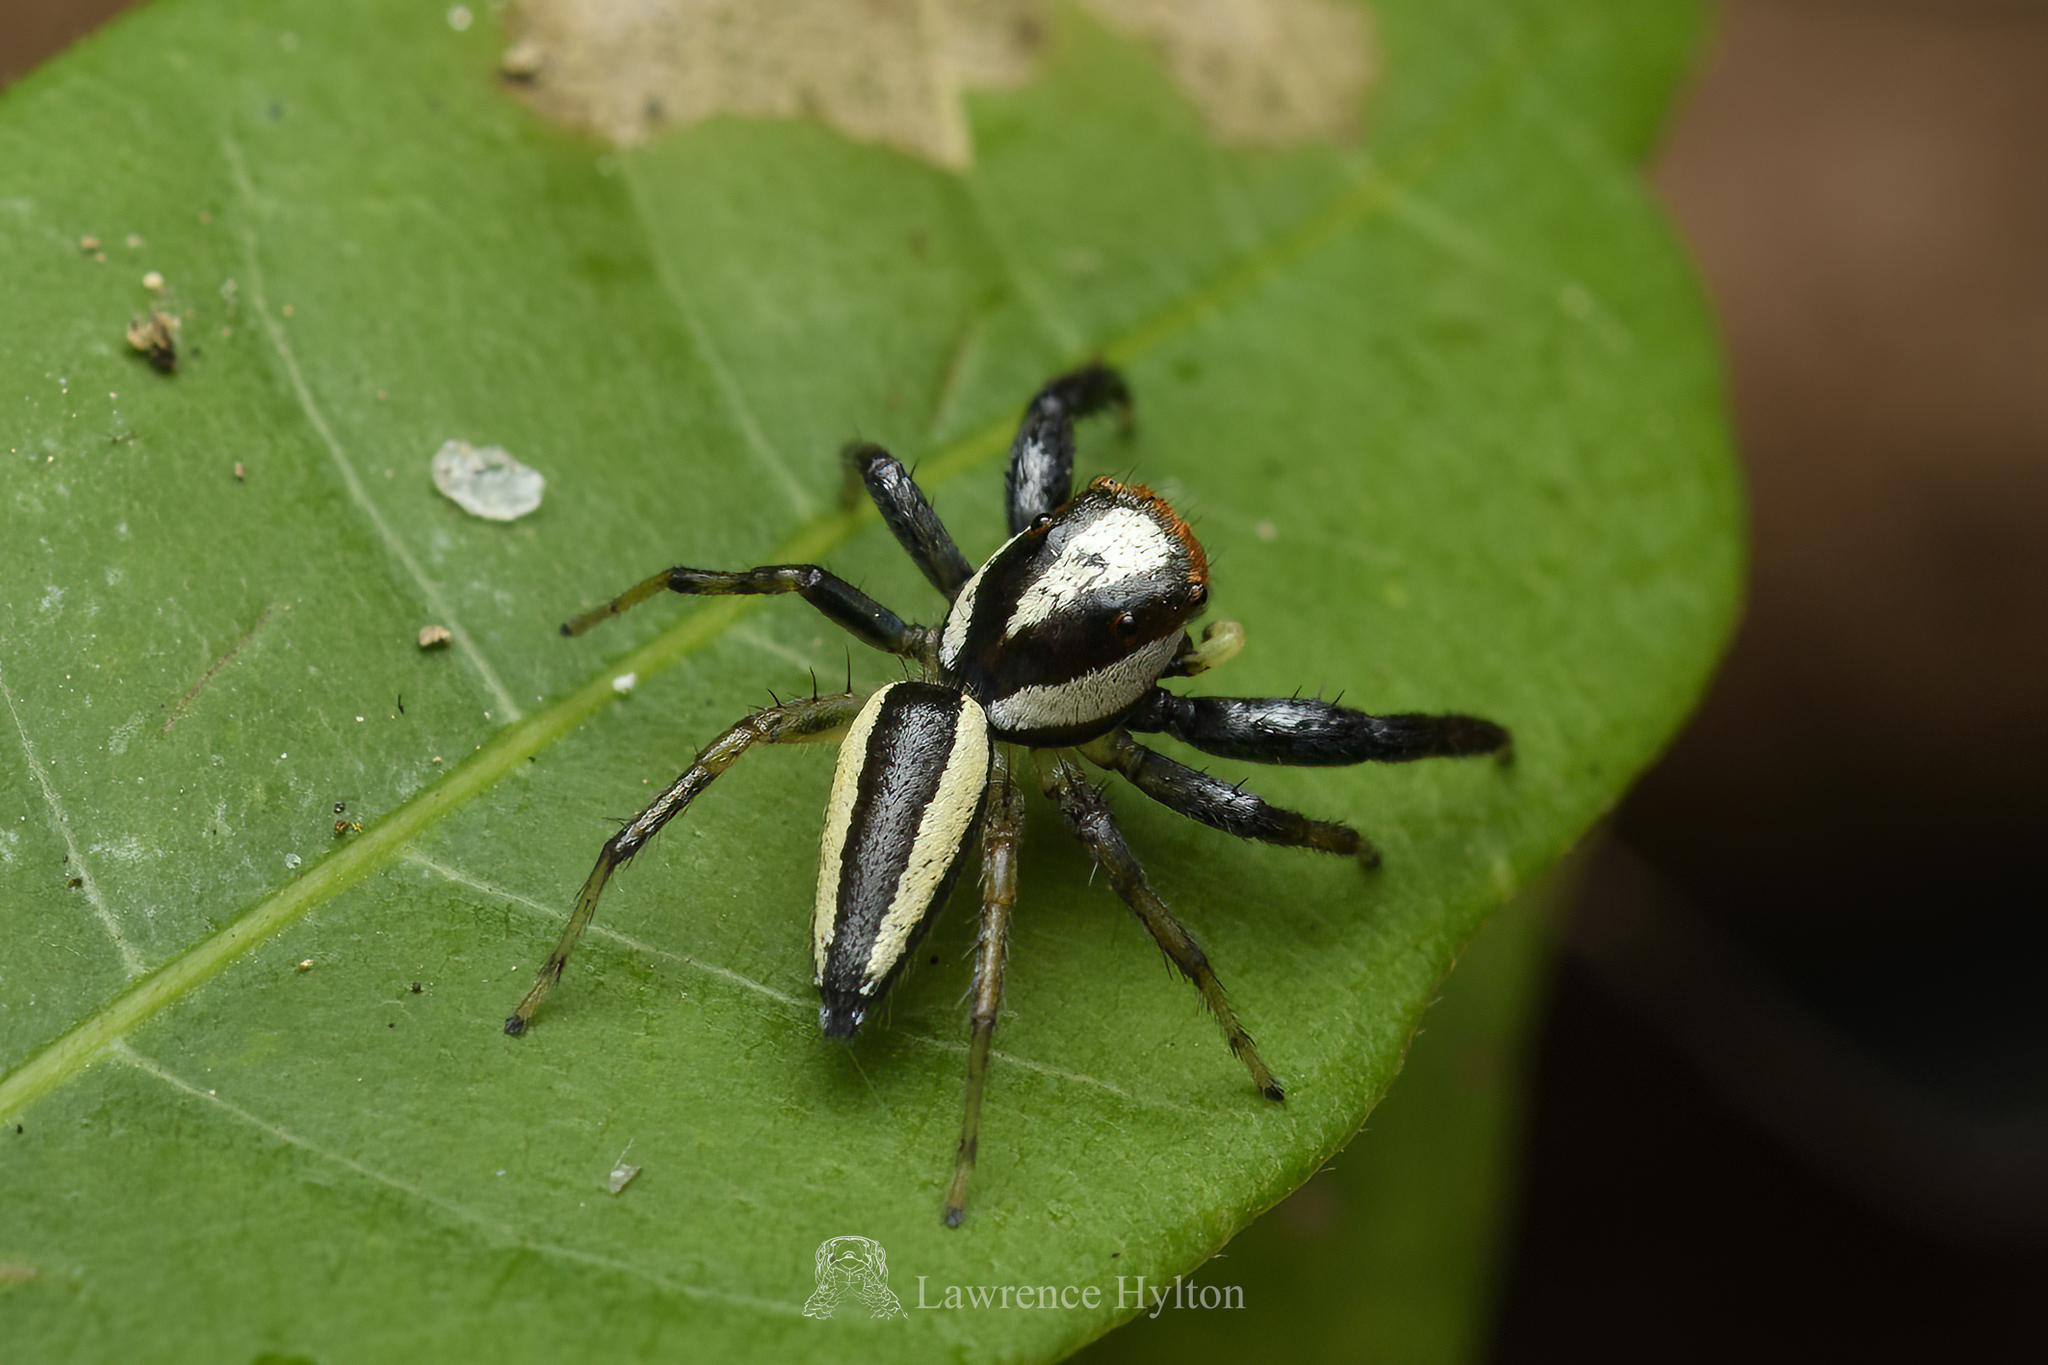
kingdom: Animalia
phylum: Arthropoda
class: Arachnida
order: Araneae
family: Salticidae
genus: Epocilla
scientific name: Epocilla blairei
